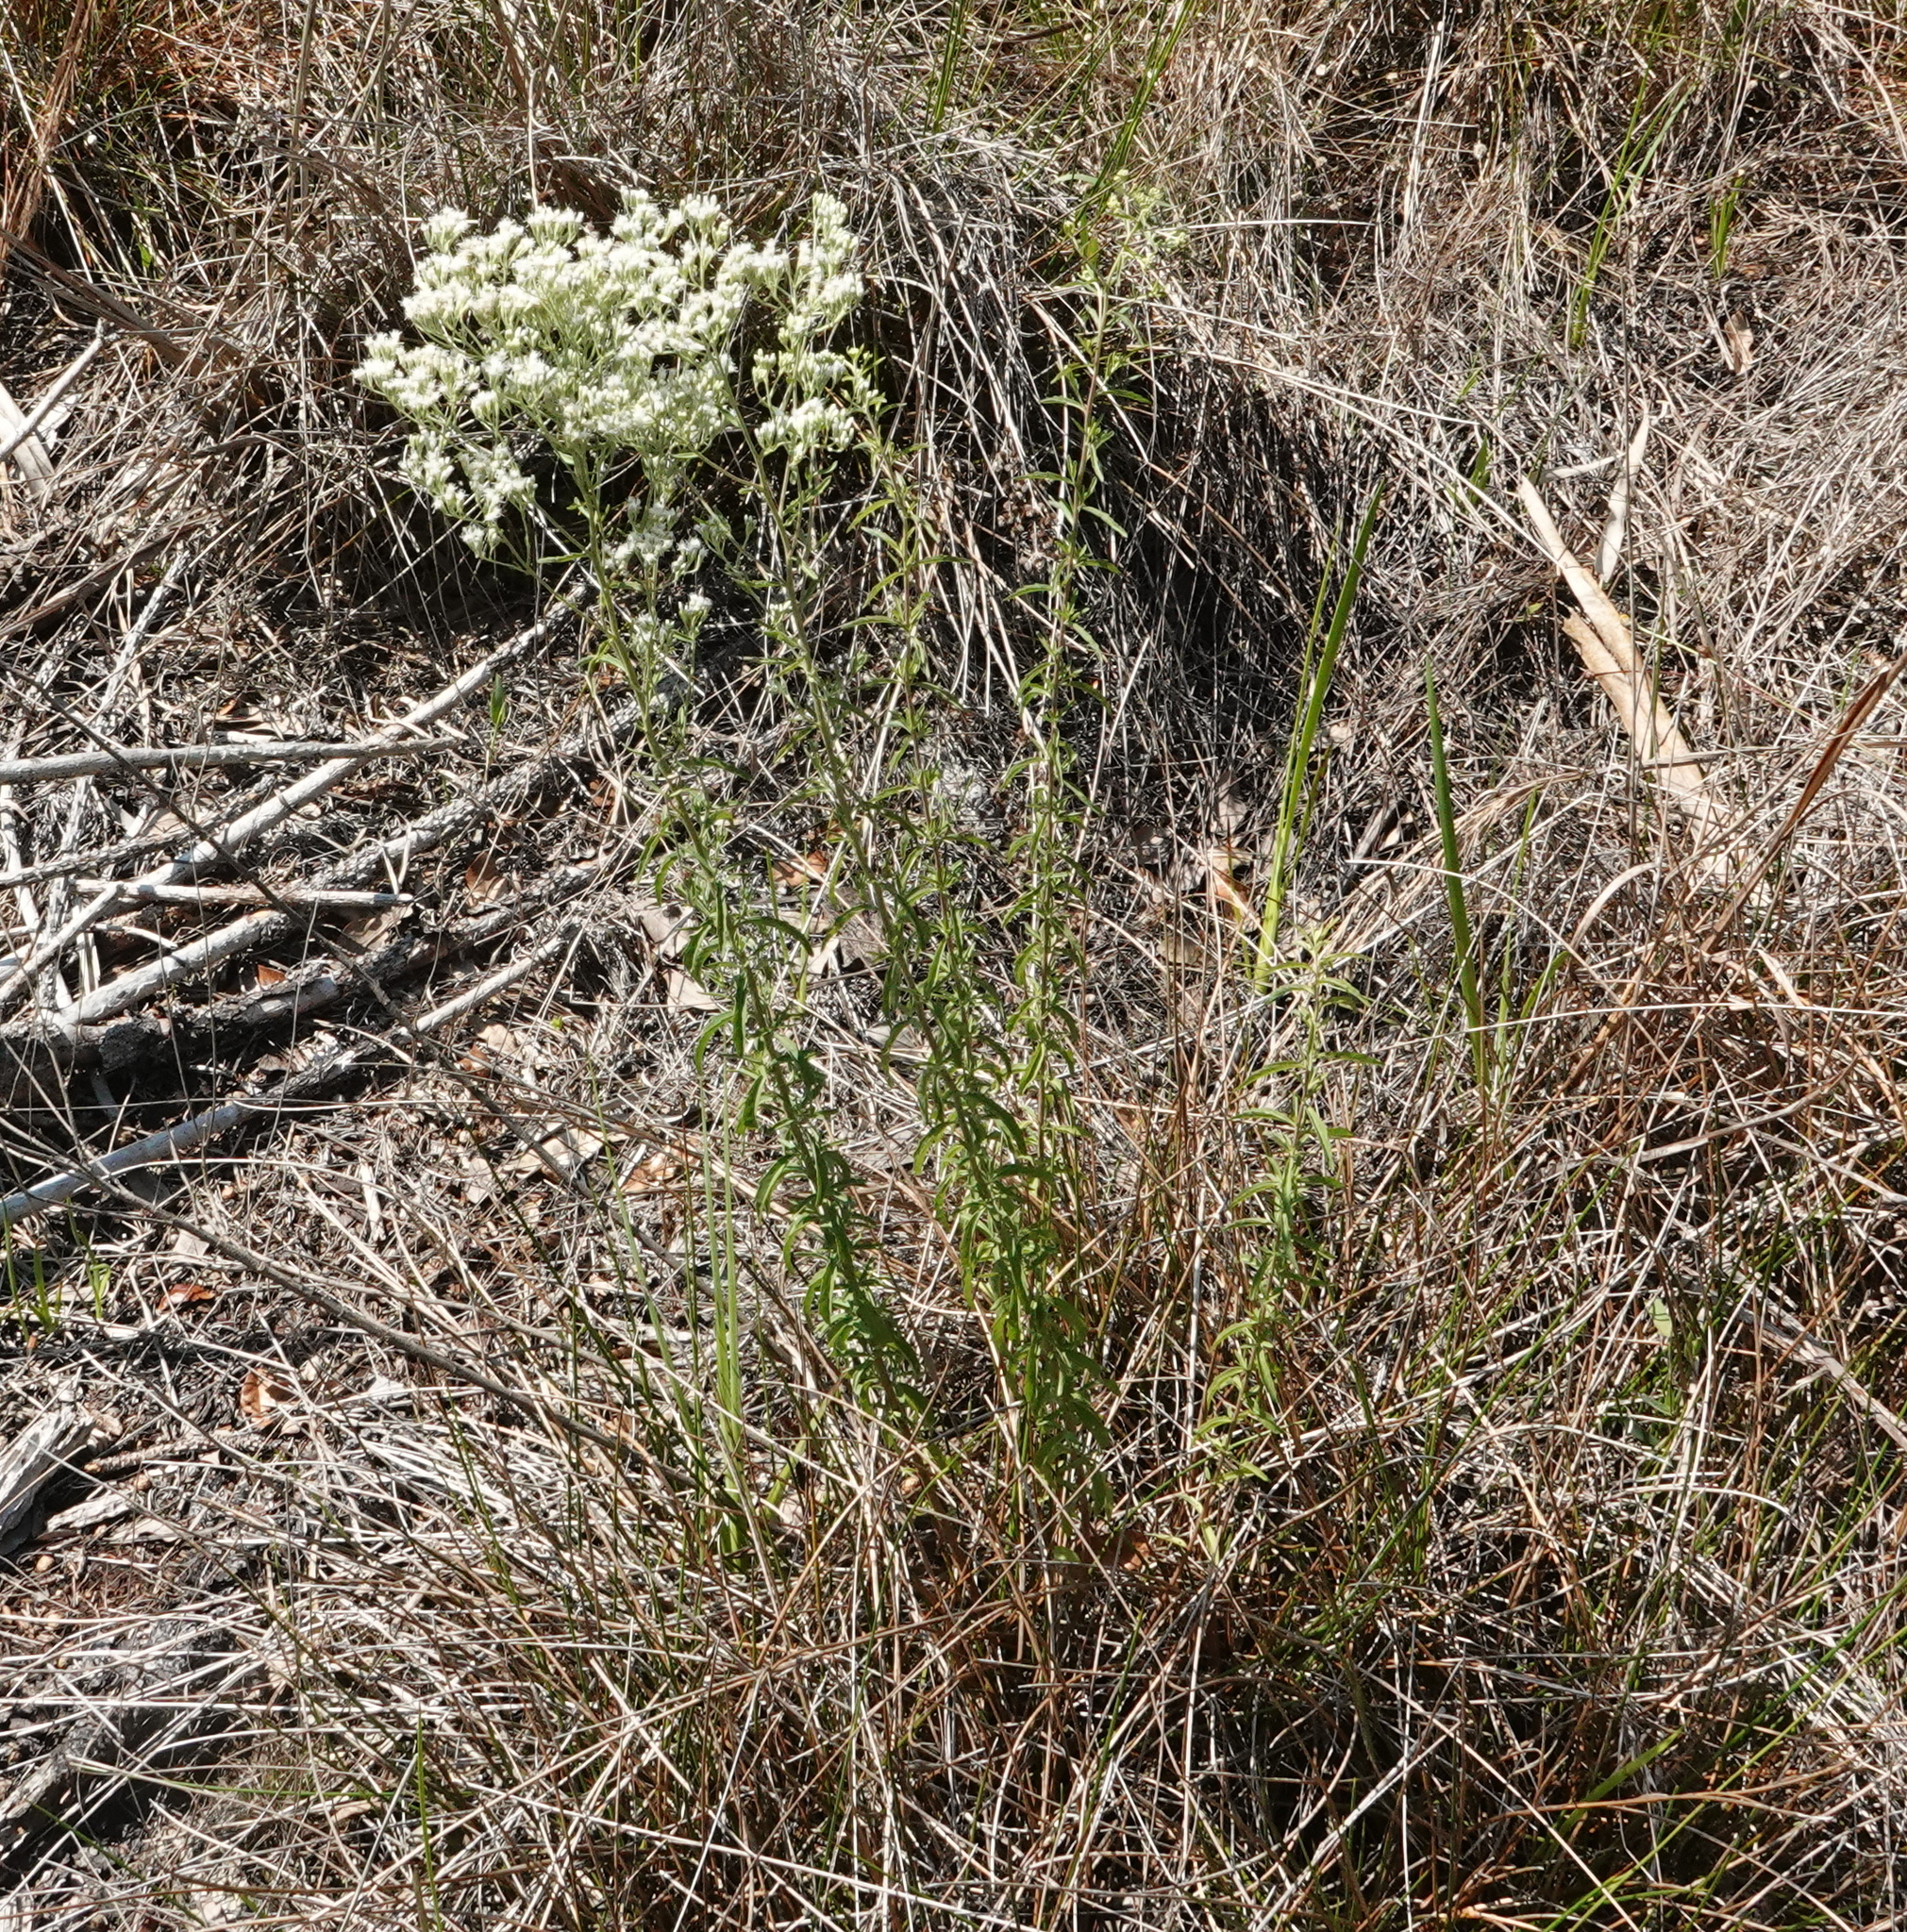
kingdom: Plantae
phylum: Tracheophyta
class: Magnoliopsida
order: Asterales
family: Asteraceae
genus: Eupatorium
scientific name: Eupatorium mohrii
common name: Mohr's thoroughwort
